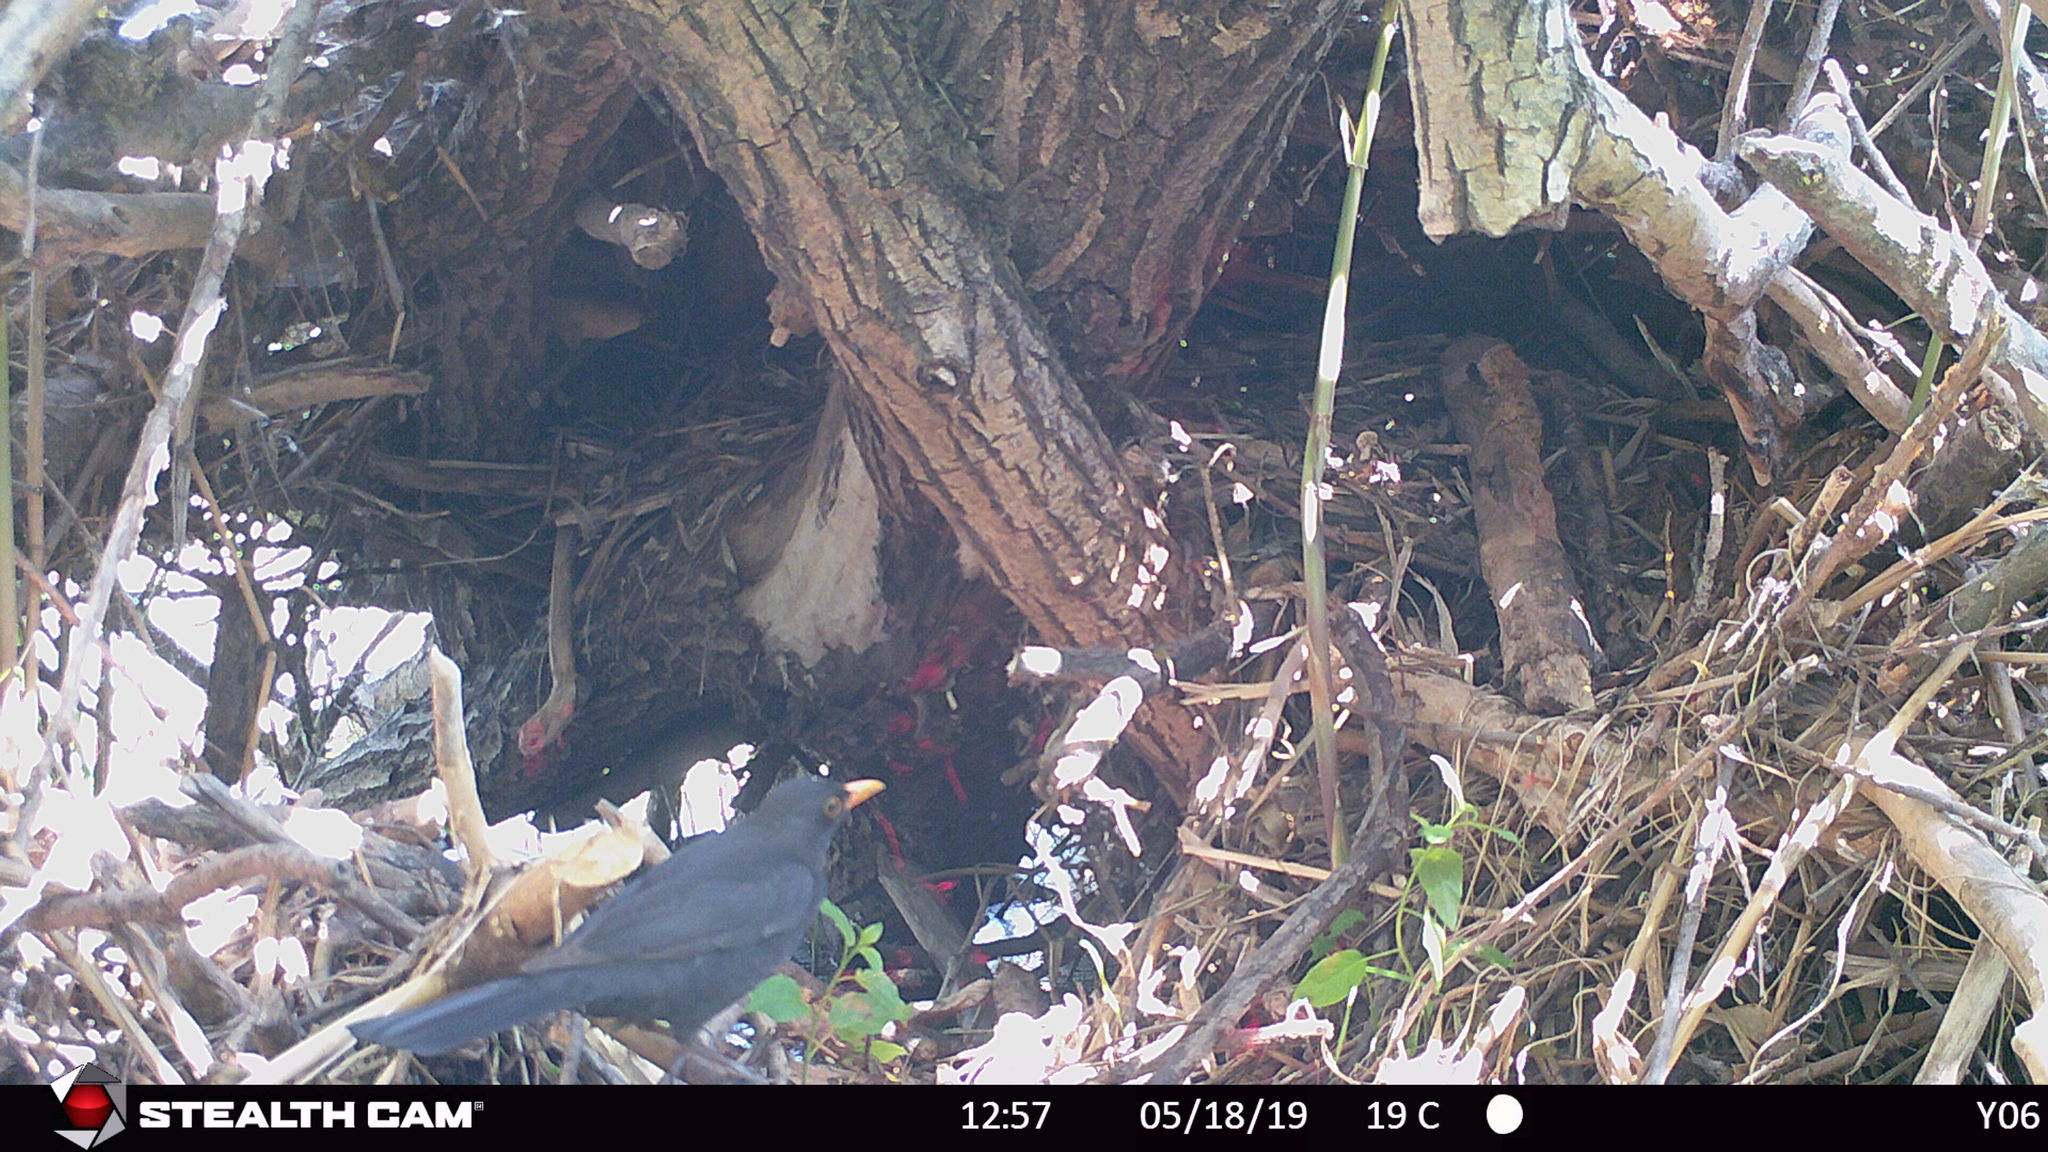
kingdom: Animalia
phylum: Chordata
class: Aves
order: Passeriformes
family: Turdidae
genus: Turdus
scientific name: Turdus merula
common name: Common blackbird
